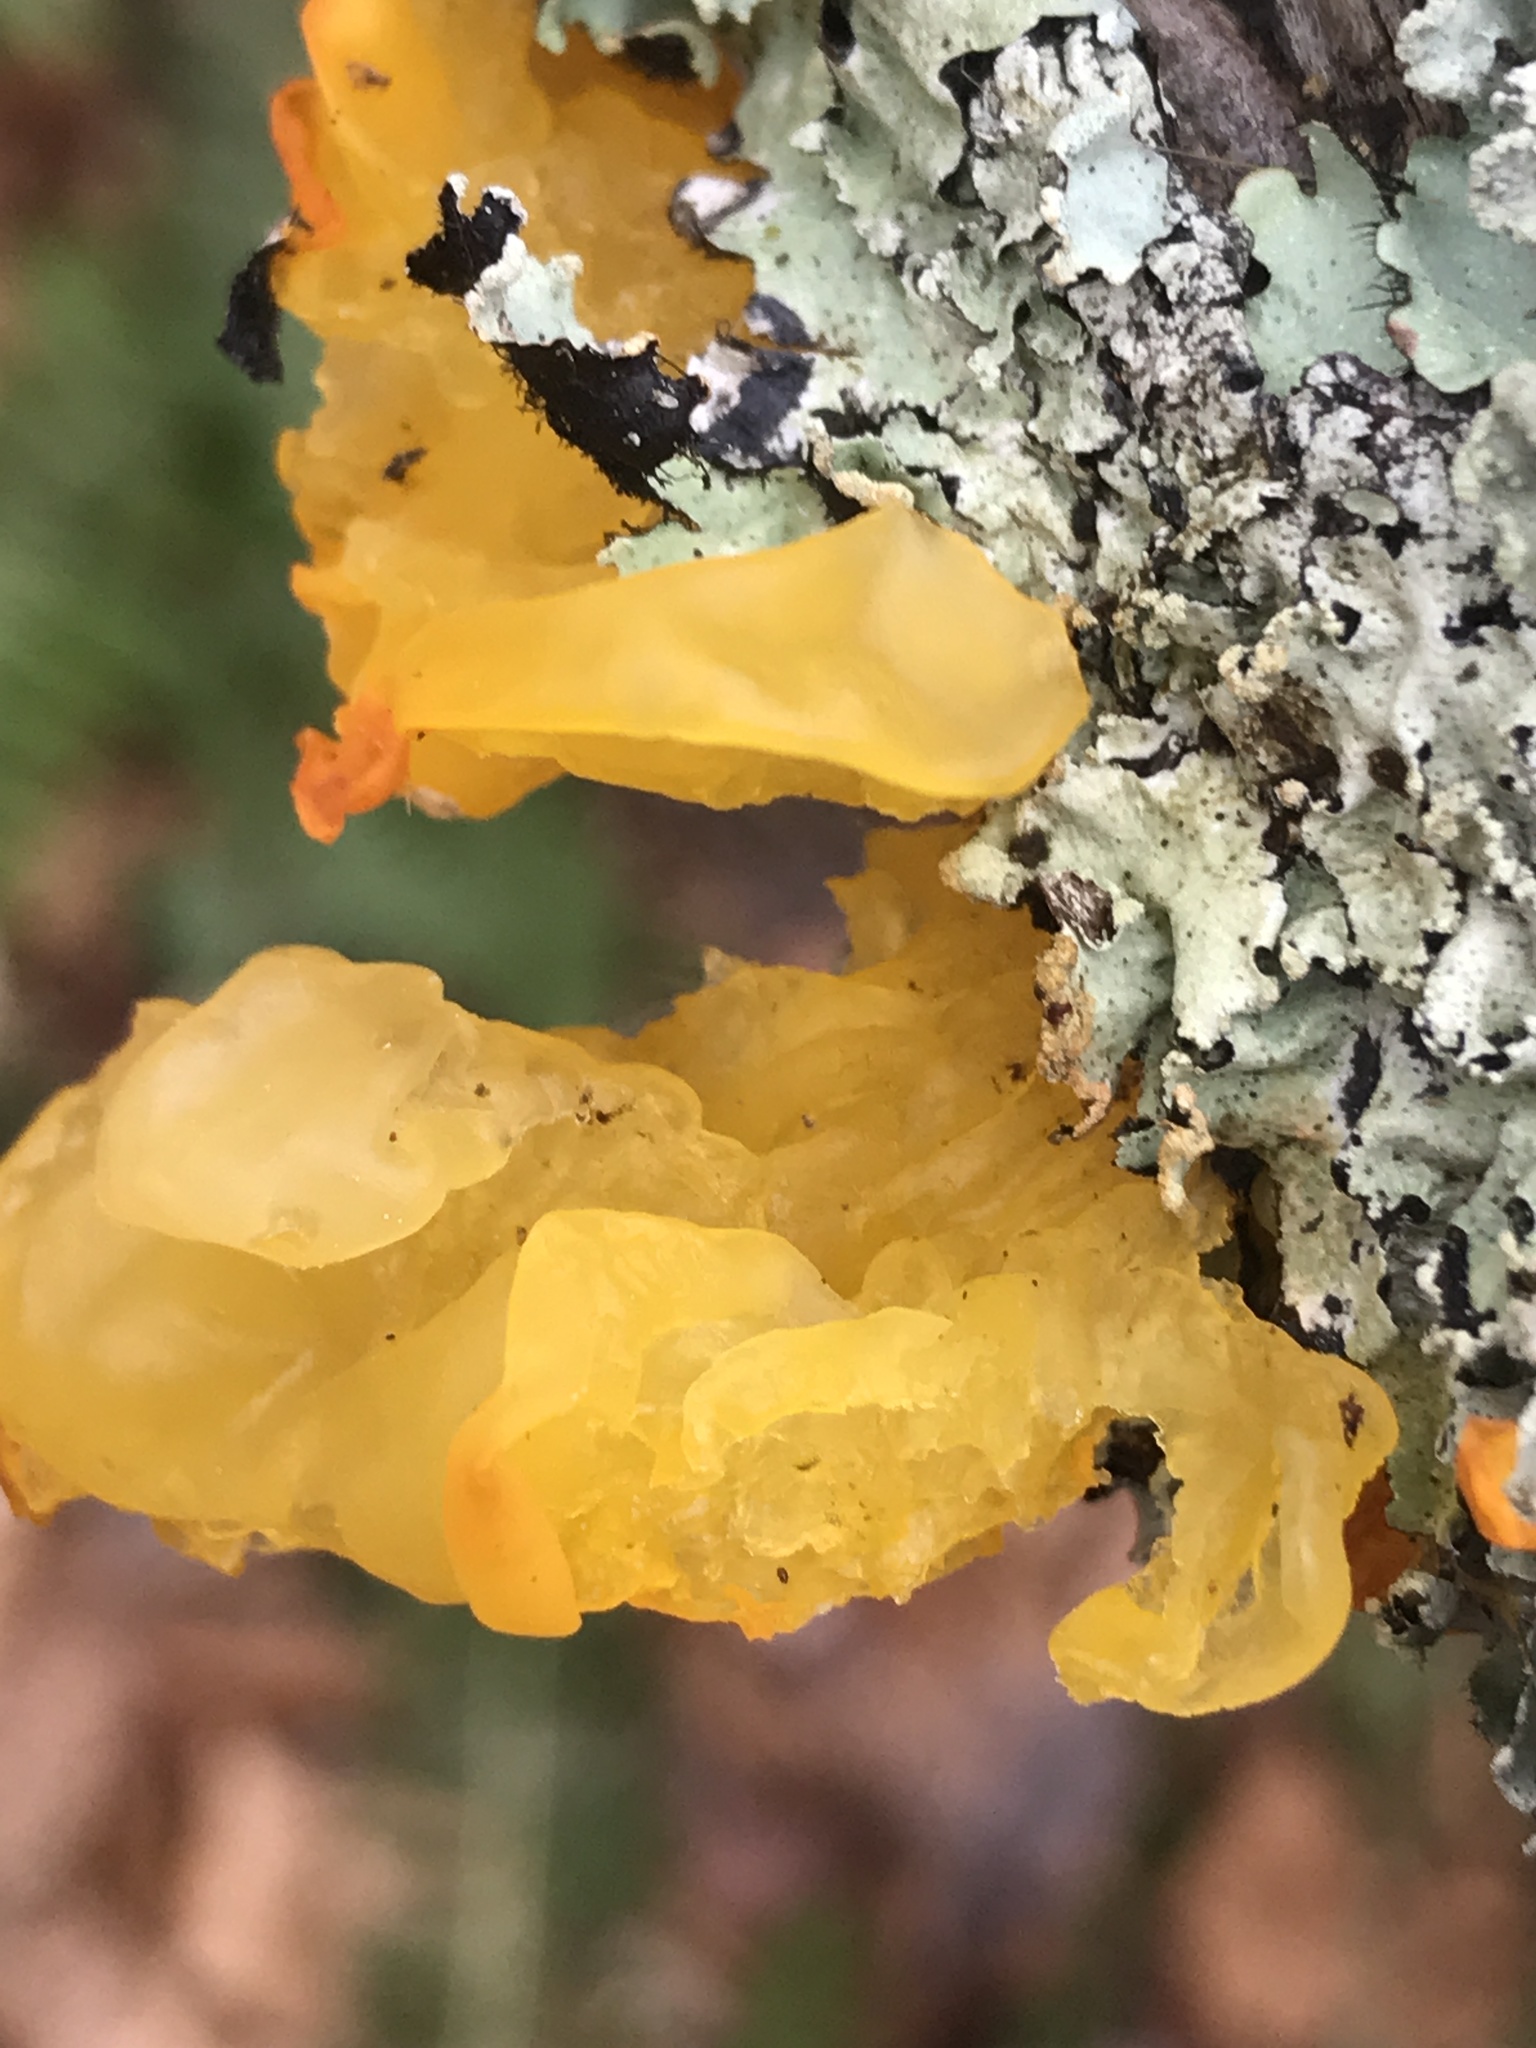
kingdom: Fungi
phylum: Basidiomycota
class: Tremellomycetes
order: Tremellales
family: Tremellaceae
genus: Tremella
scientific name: Tremella mesenterica
